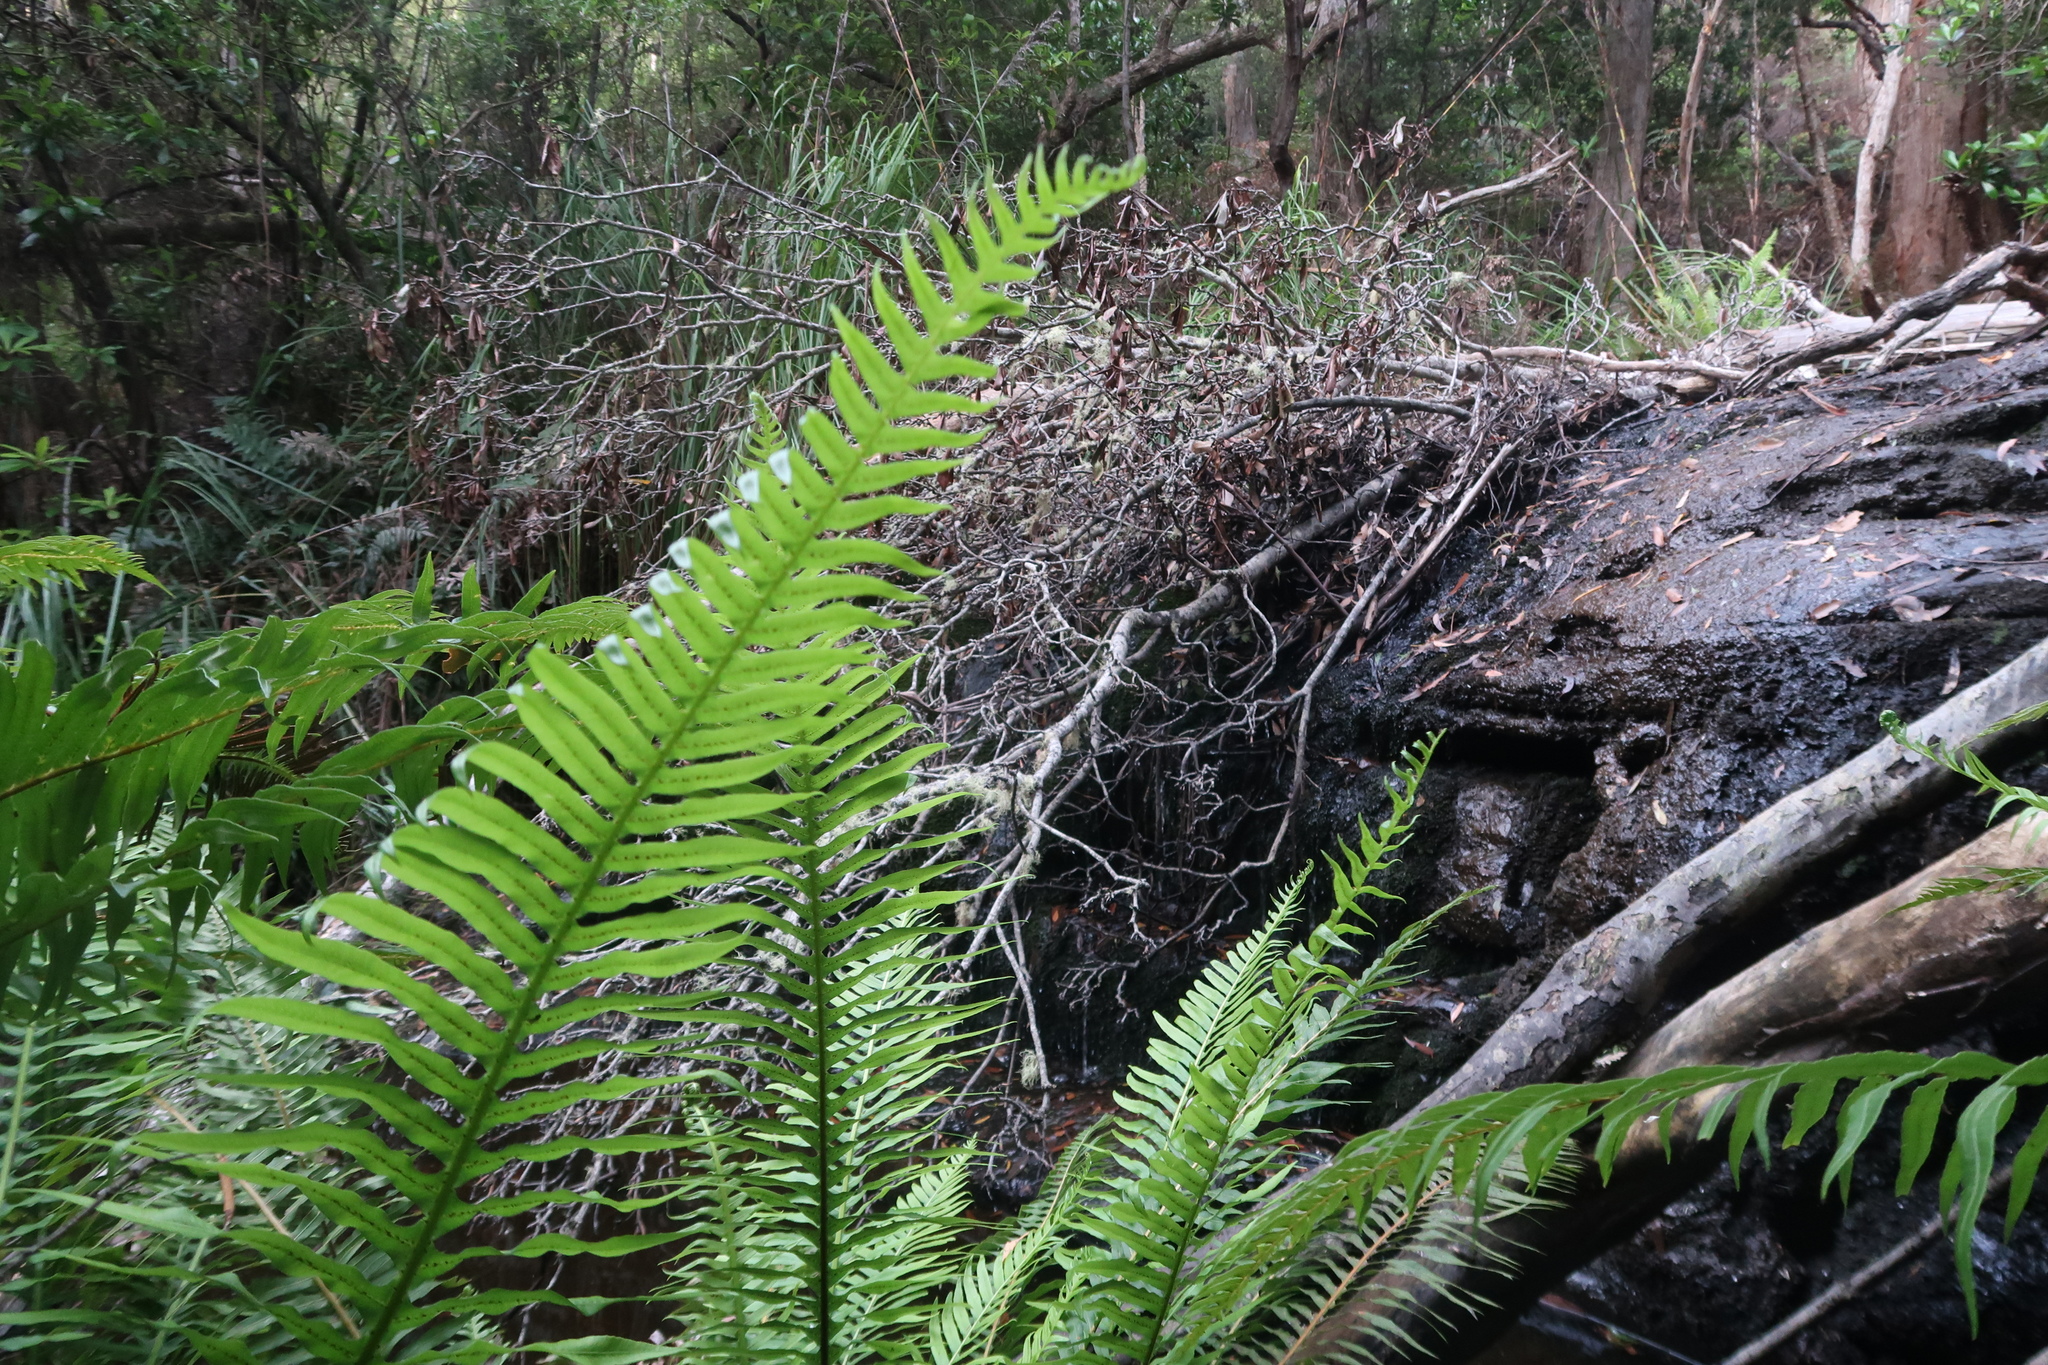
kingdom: Plantae
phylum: Tracheophyta
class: Polypodiopsida
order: Polypodiales
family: Blechnaceae
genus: Lomaria
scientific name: Lomaria nuda
